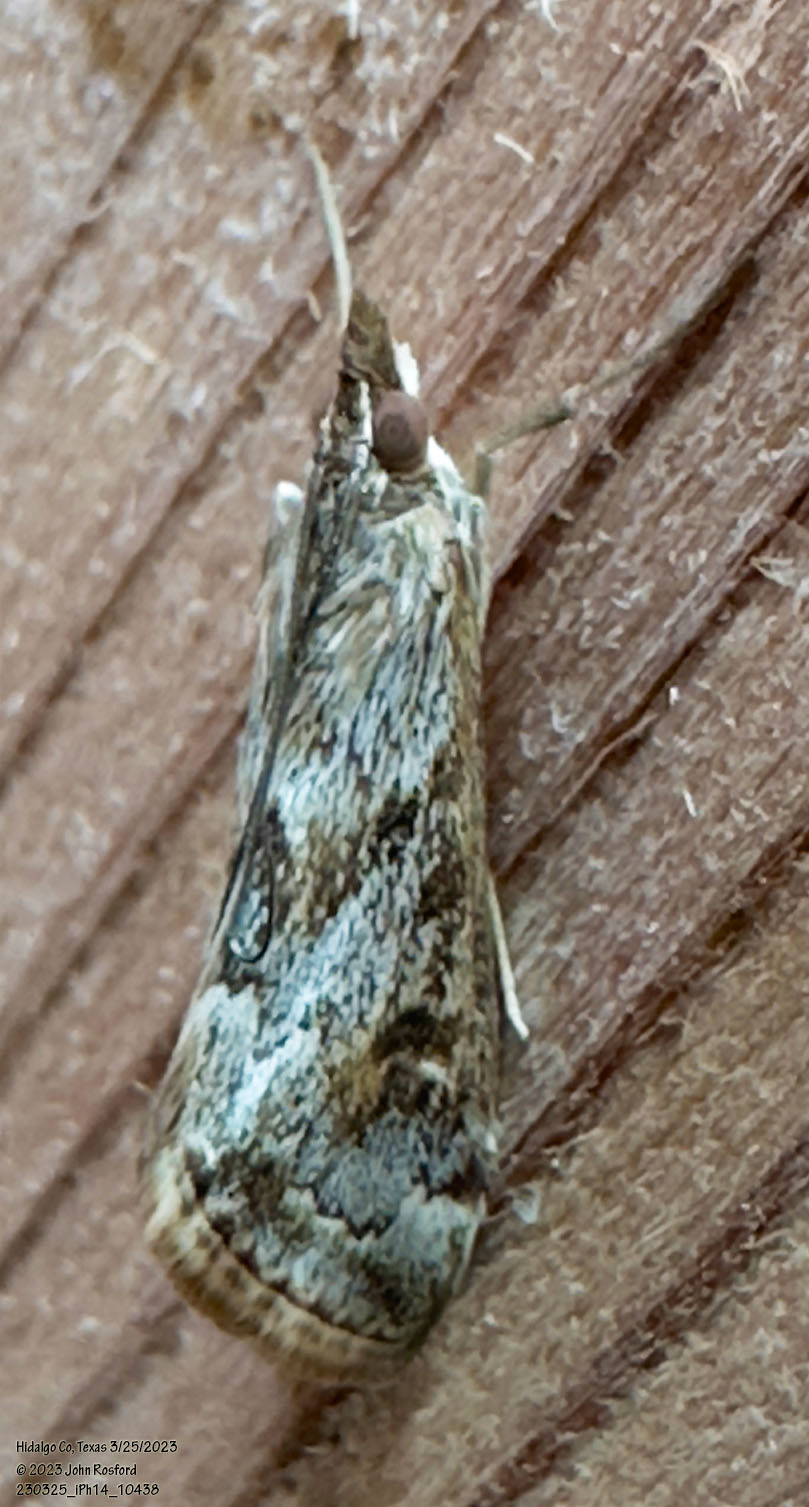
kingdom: Animalia
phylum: Arthropoda
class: Insecta
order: Lepidoptera
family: Crambidae
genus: Loxostege
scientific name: Loxostege allectalis
